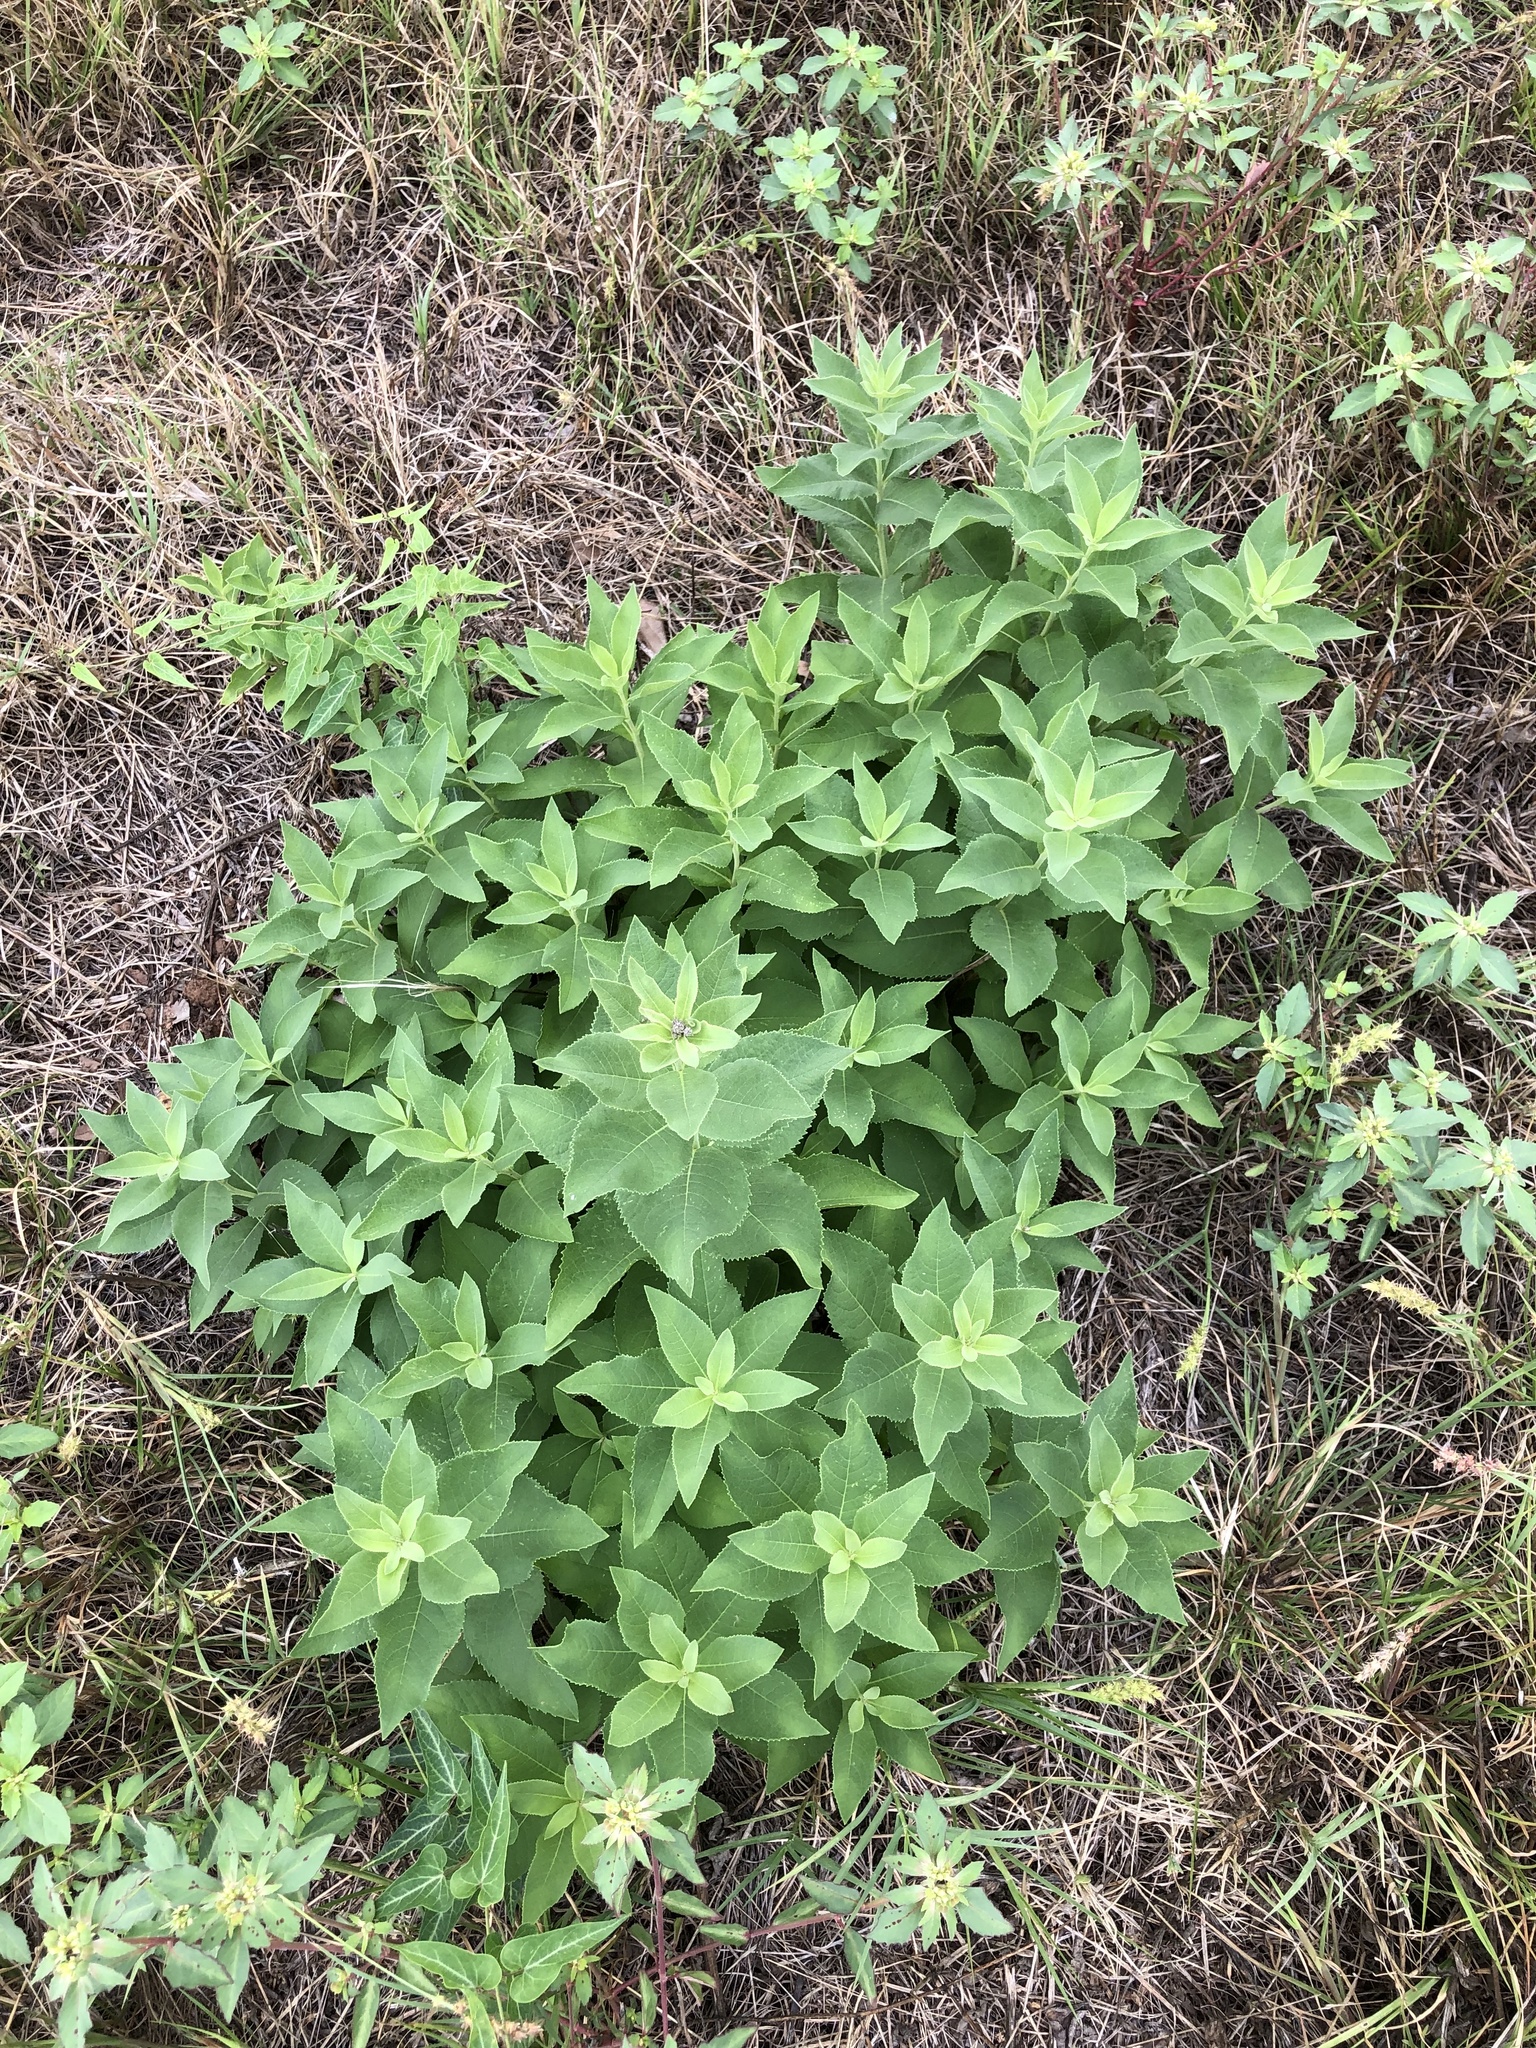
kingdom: Plantae
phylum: Tracheophyta
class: Magnoliopsida
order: Asterales
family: Asteraceae
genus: Vernonia
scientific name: Vernonia baldwinii
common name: Western ironweed
